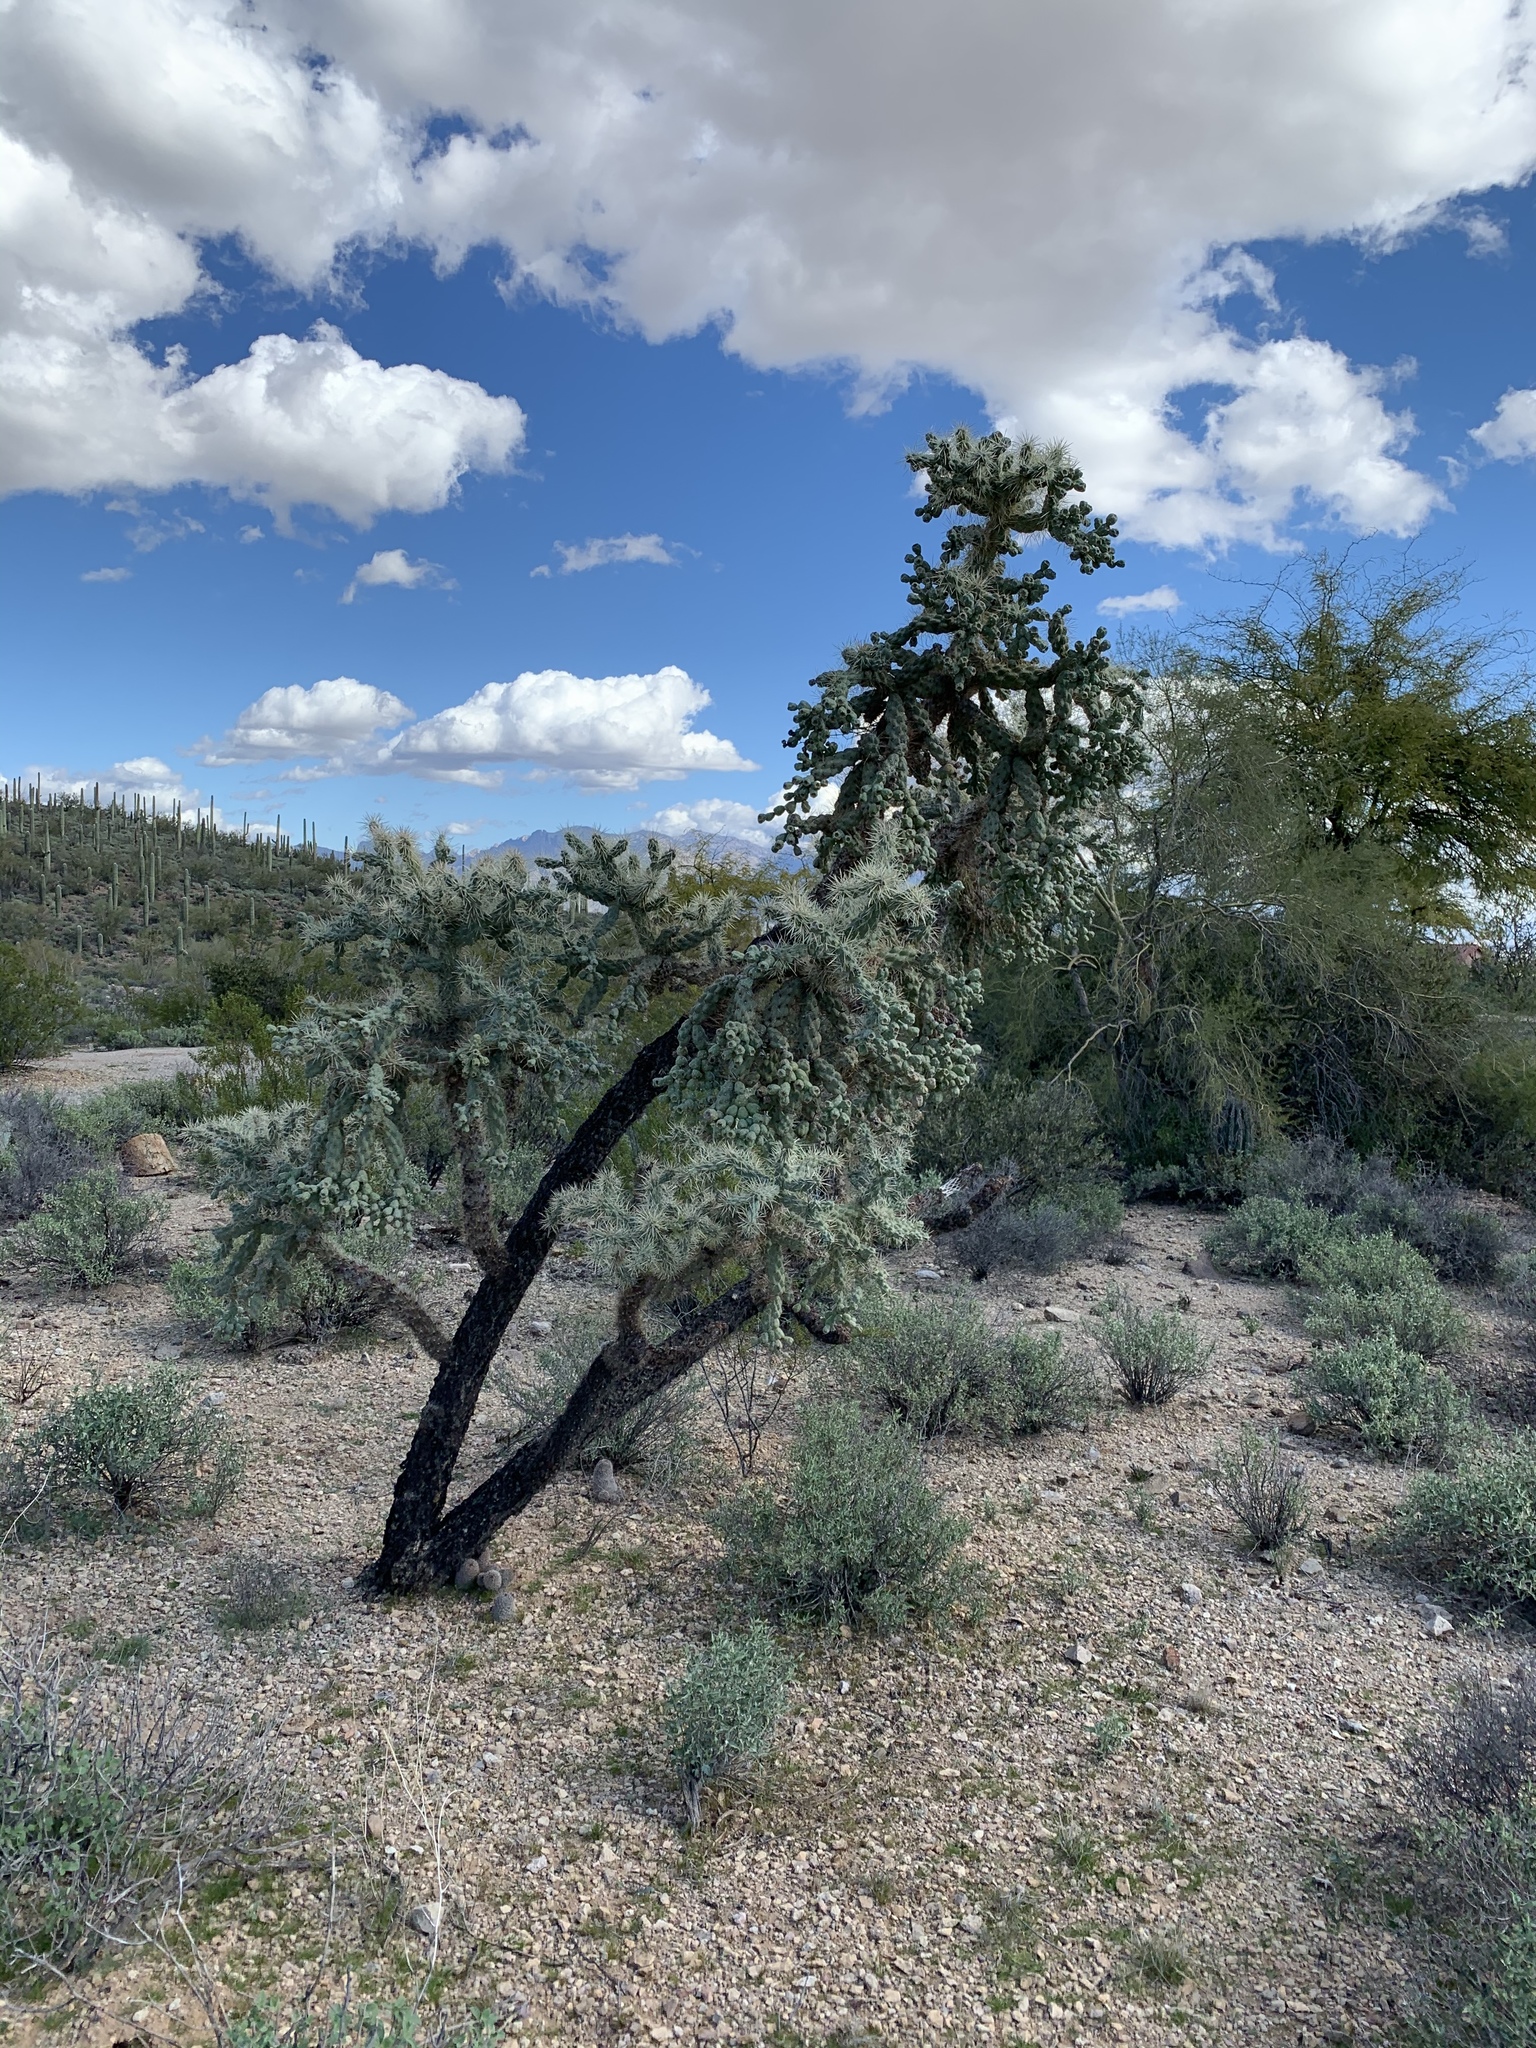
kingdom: Plantae
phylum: Tracheophyta
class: Magnoliopsida
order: Caryophyllales
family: Cactaceae
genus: Cylindropuntia
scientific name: Cylindropuntia fulgida
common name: Jumping cholla
